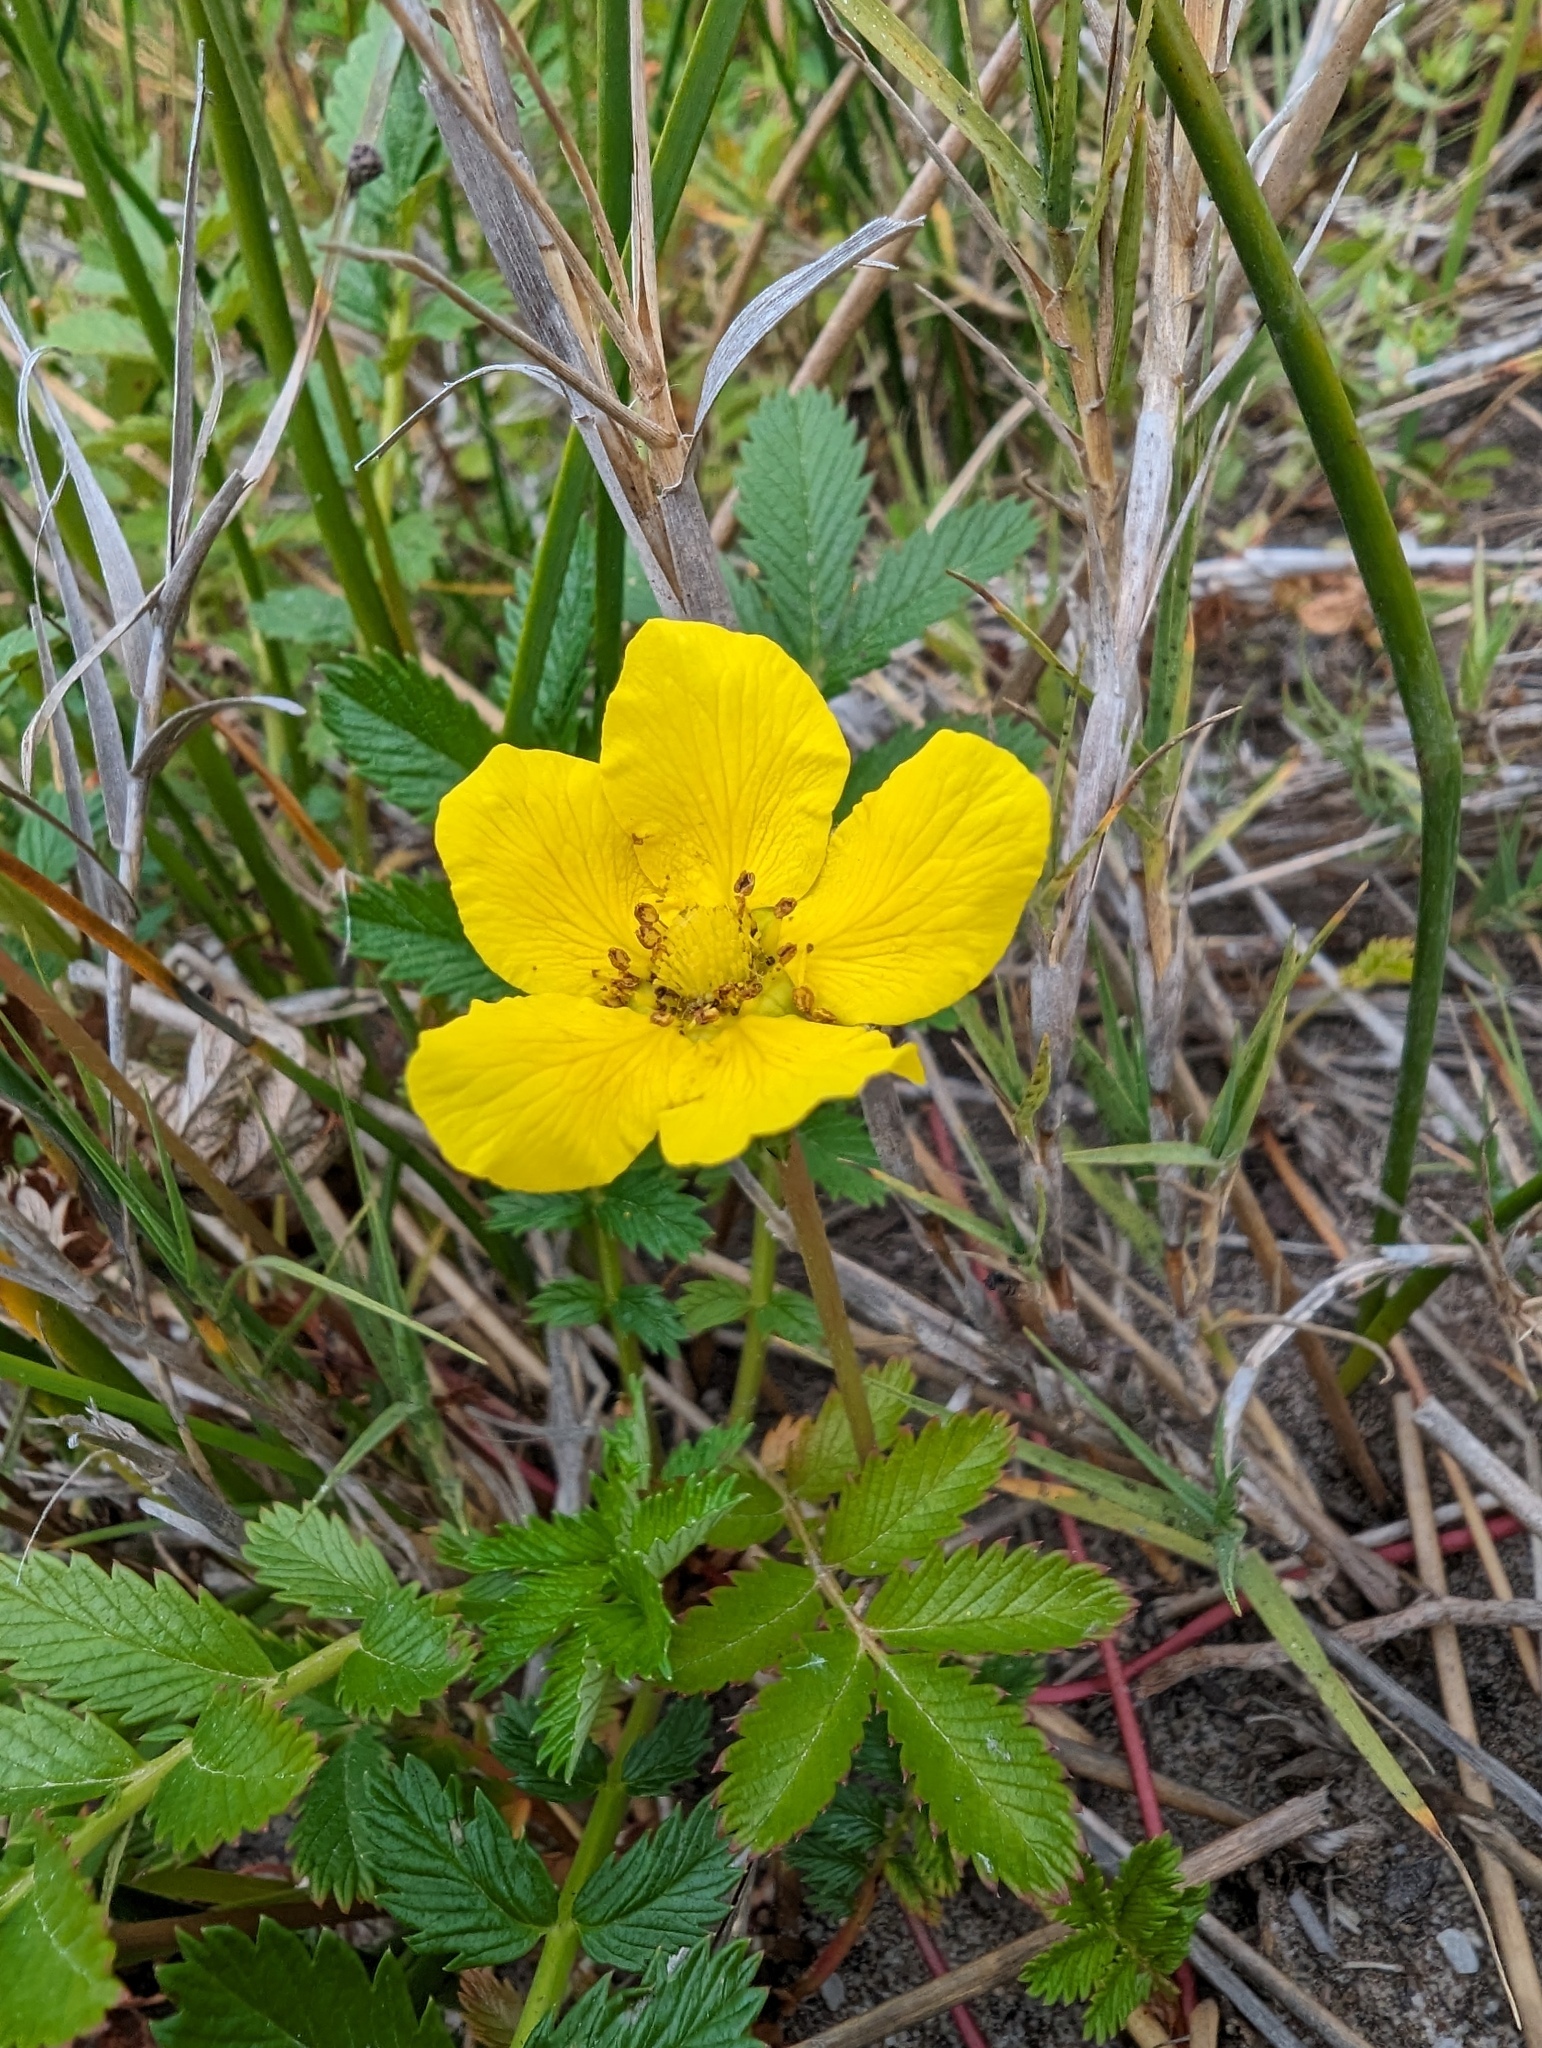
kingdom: Plantae
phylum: Tracheophyta
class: Magnoliopsida
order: Rosales
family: Rosaceae
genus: Argentina
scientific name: Argentina anserina
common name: Common silverweed
